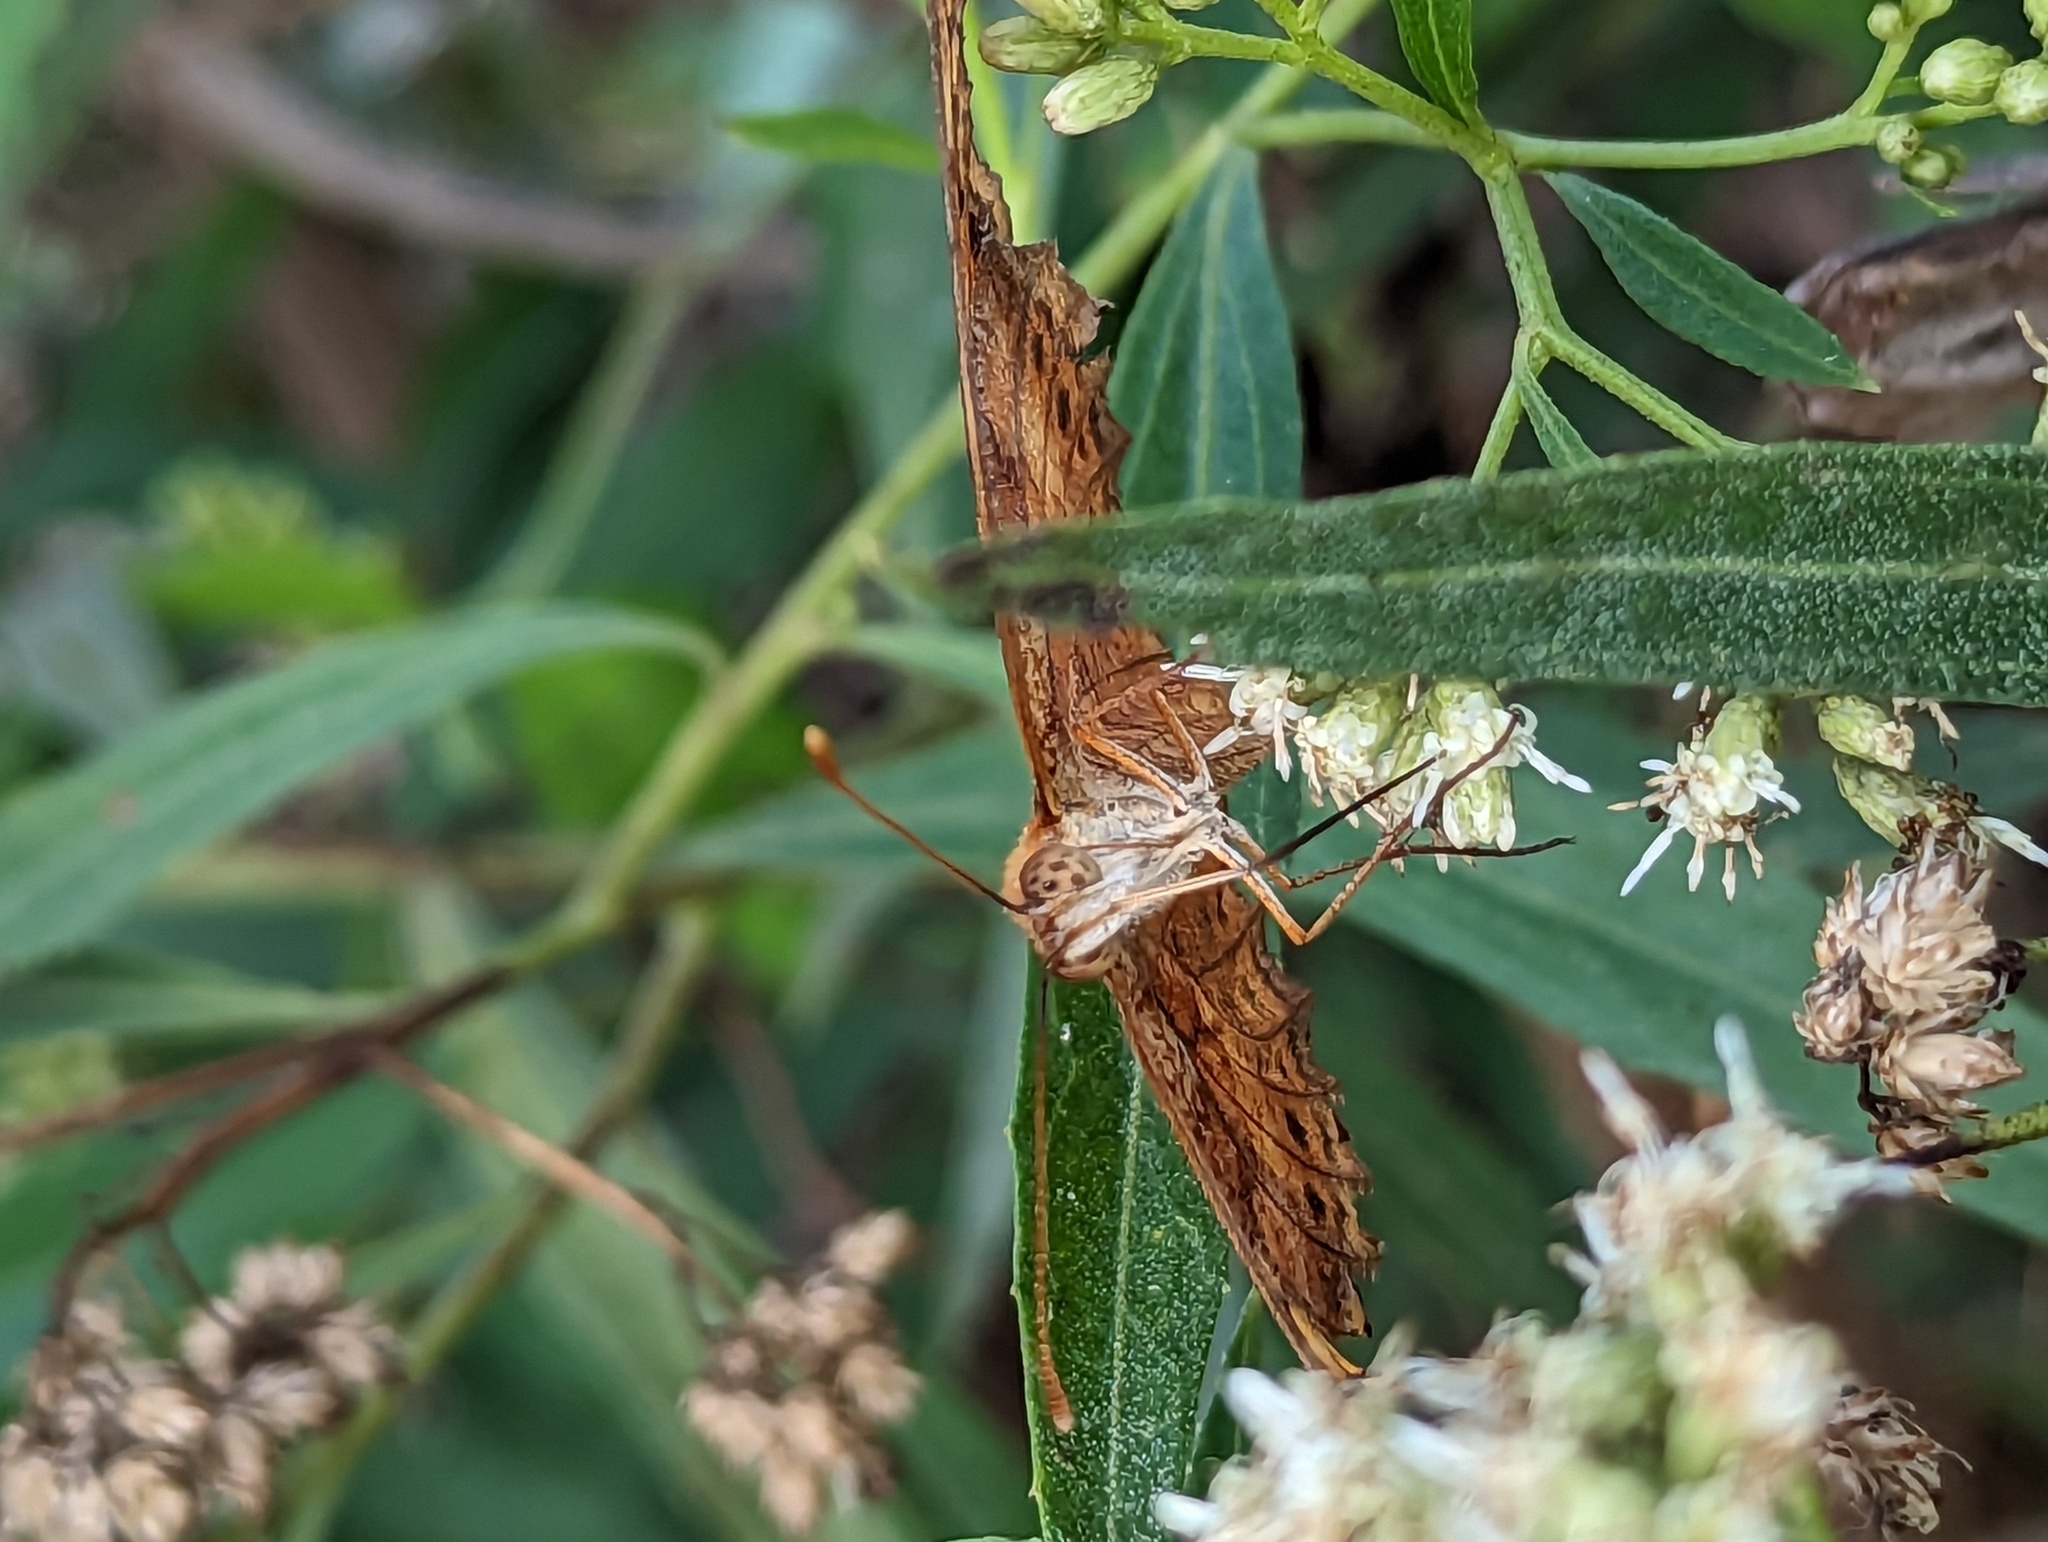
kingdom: Animalia
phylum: Arthropoda
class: Insecta
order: Lepidoptera
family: Nymphalidae
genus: Euptoieta
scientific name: Euptoieta hegesia
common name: Mexican fritillary
